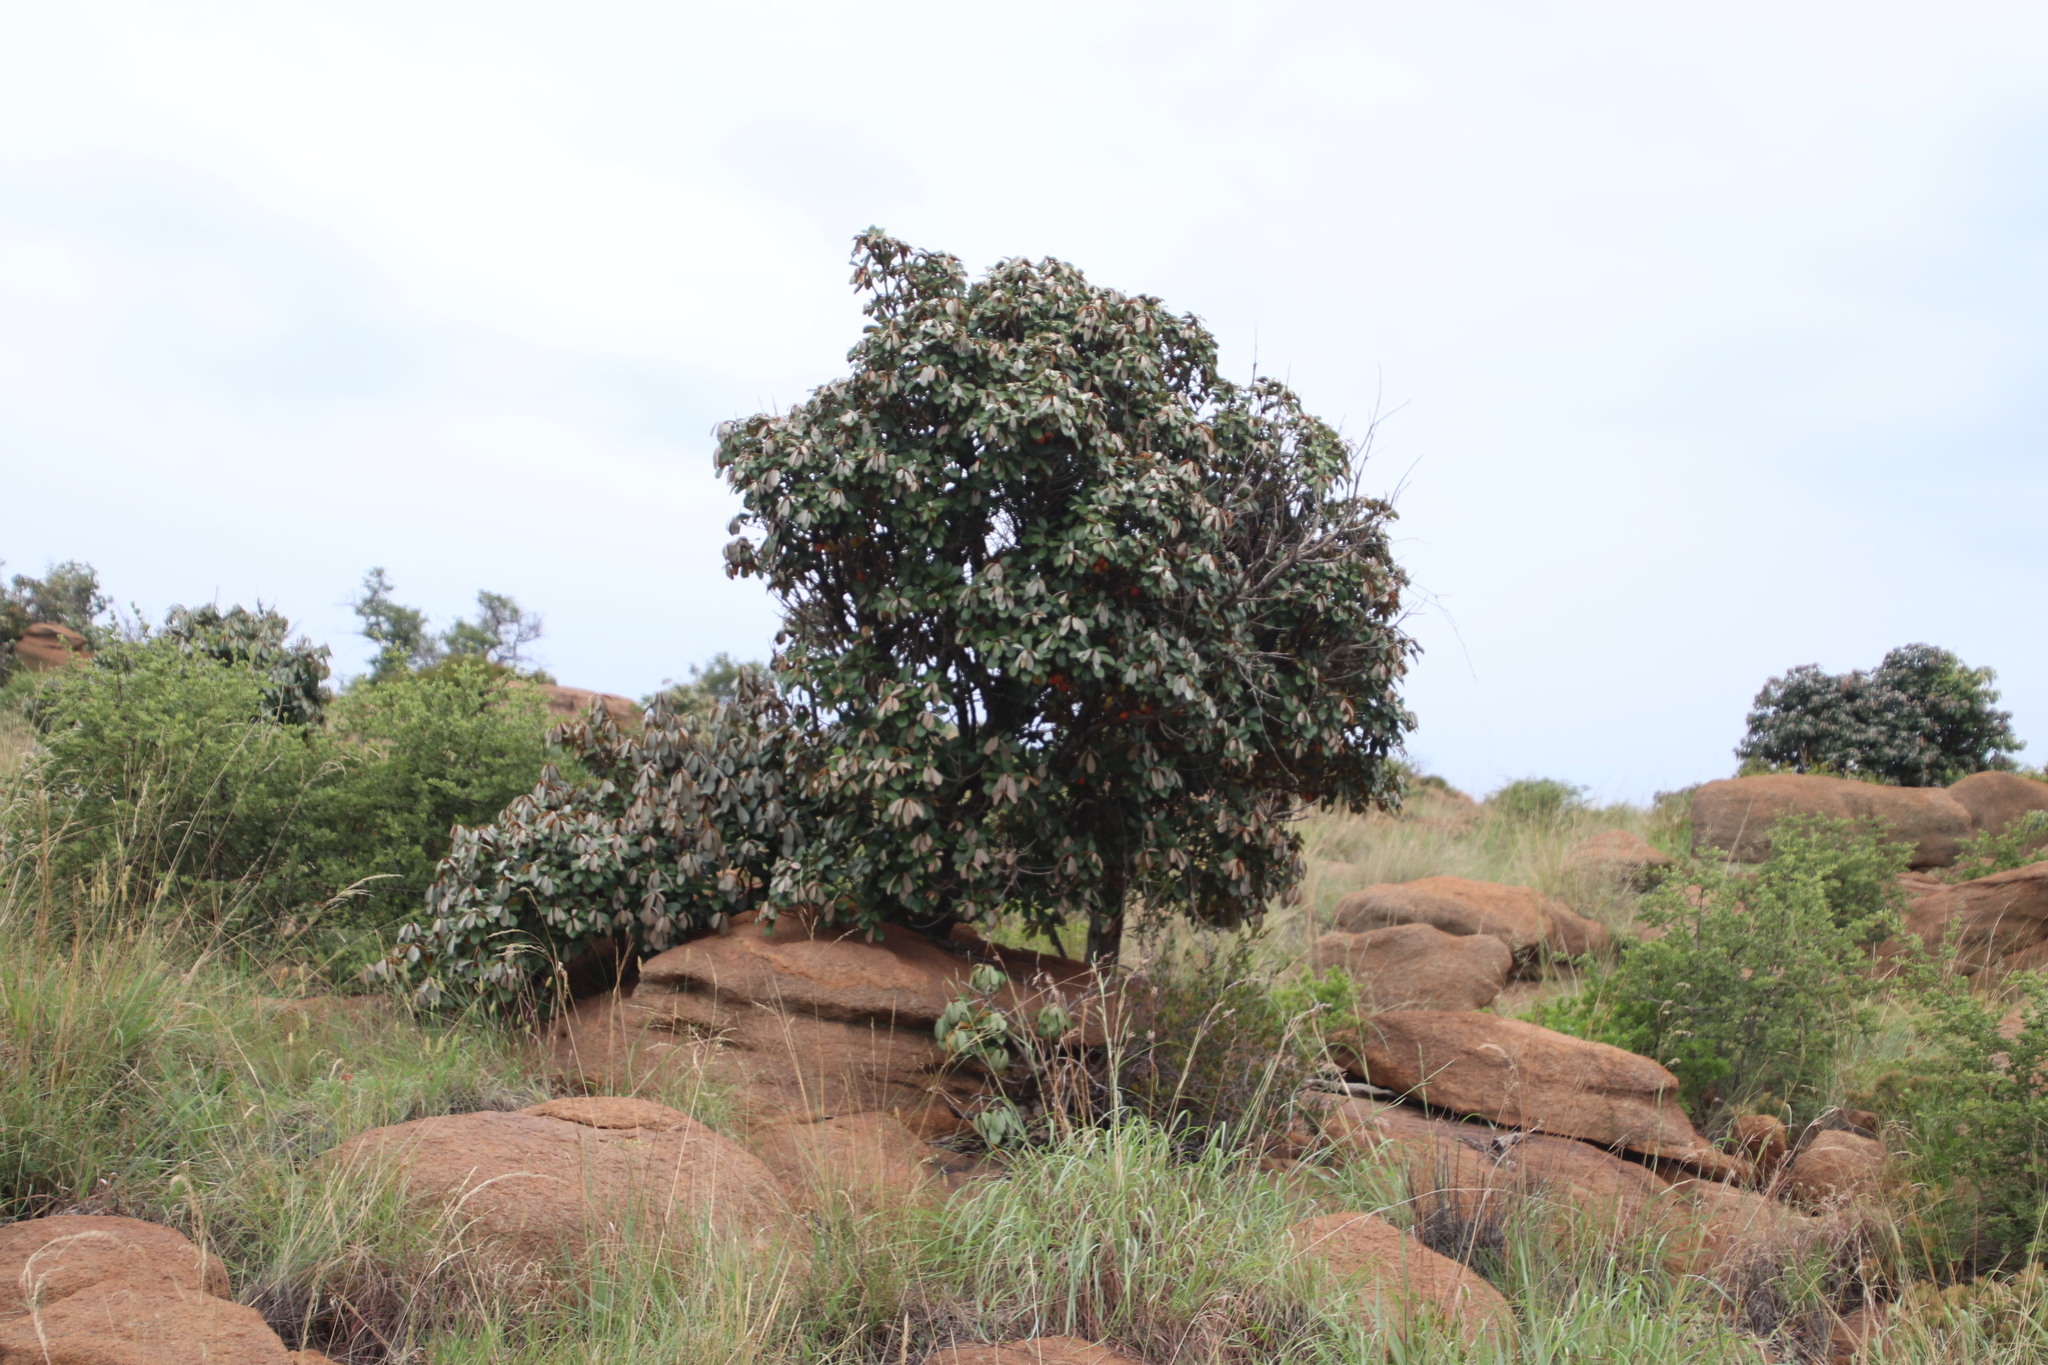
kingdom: Plantae
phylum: Tracheophyta
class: Magnoliopsida
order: Ericales
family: Sapotaceae
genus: Englerophytum
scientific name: Englerophytum magalismontanum
